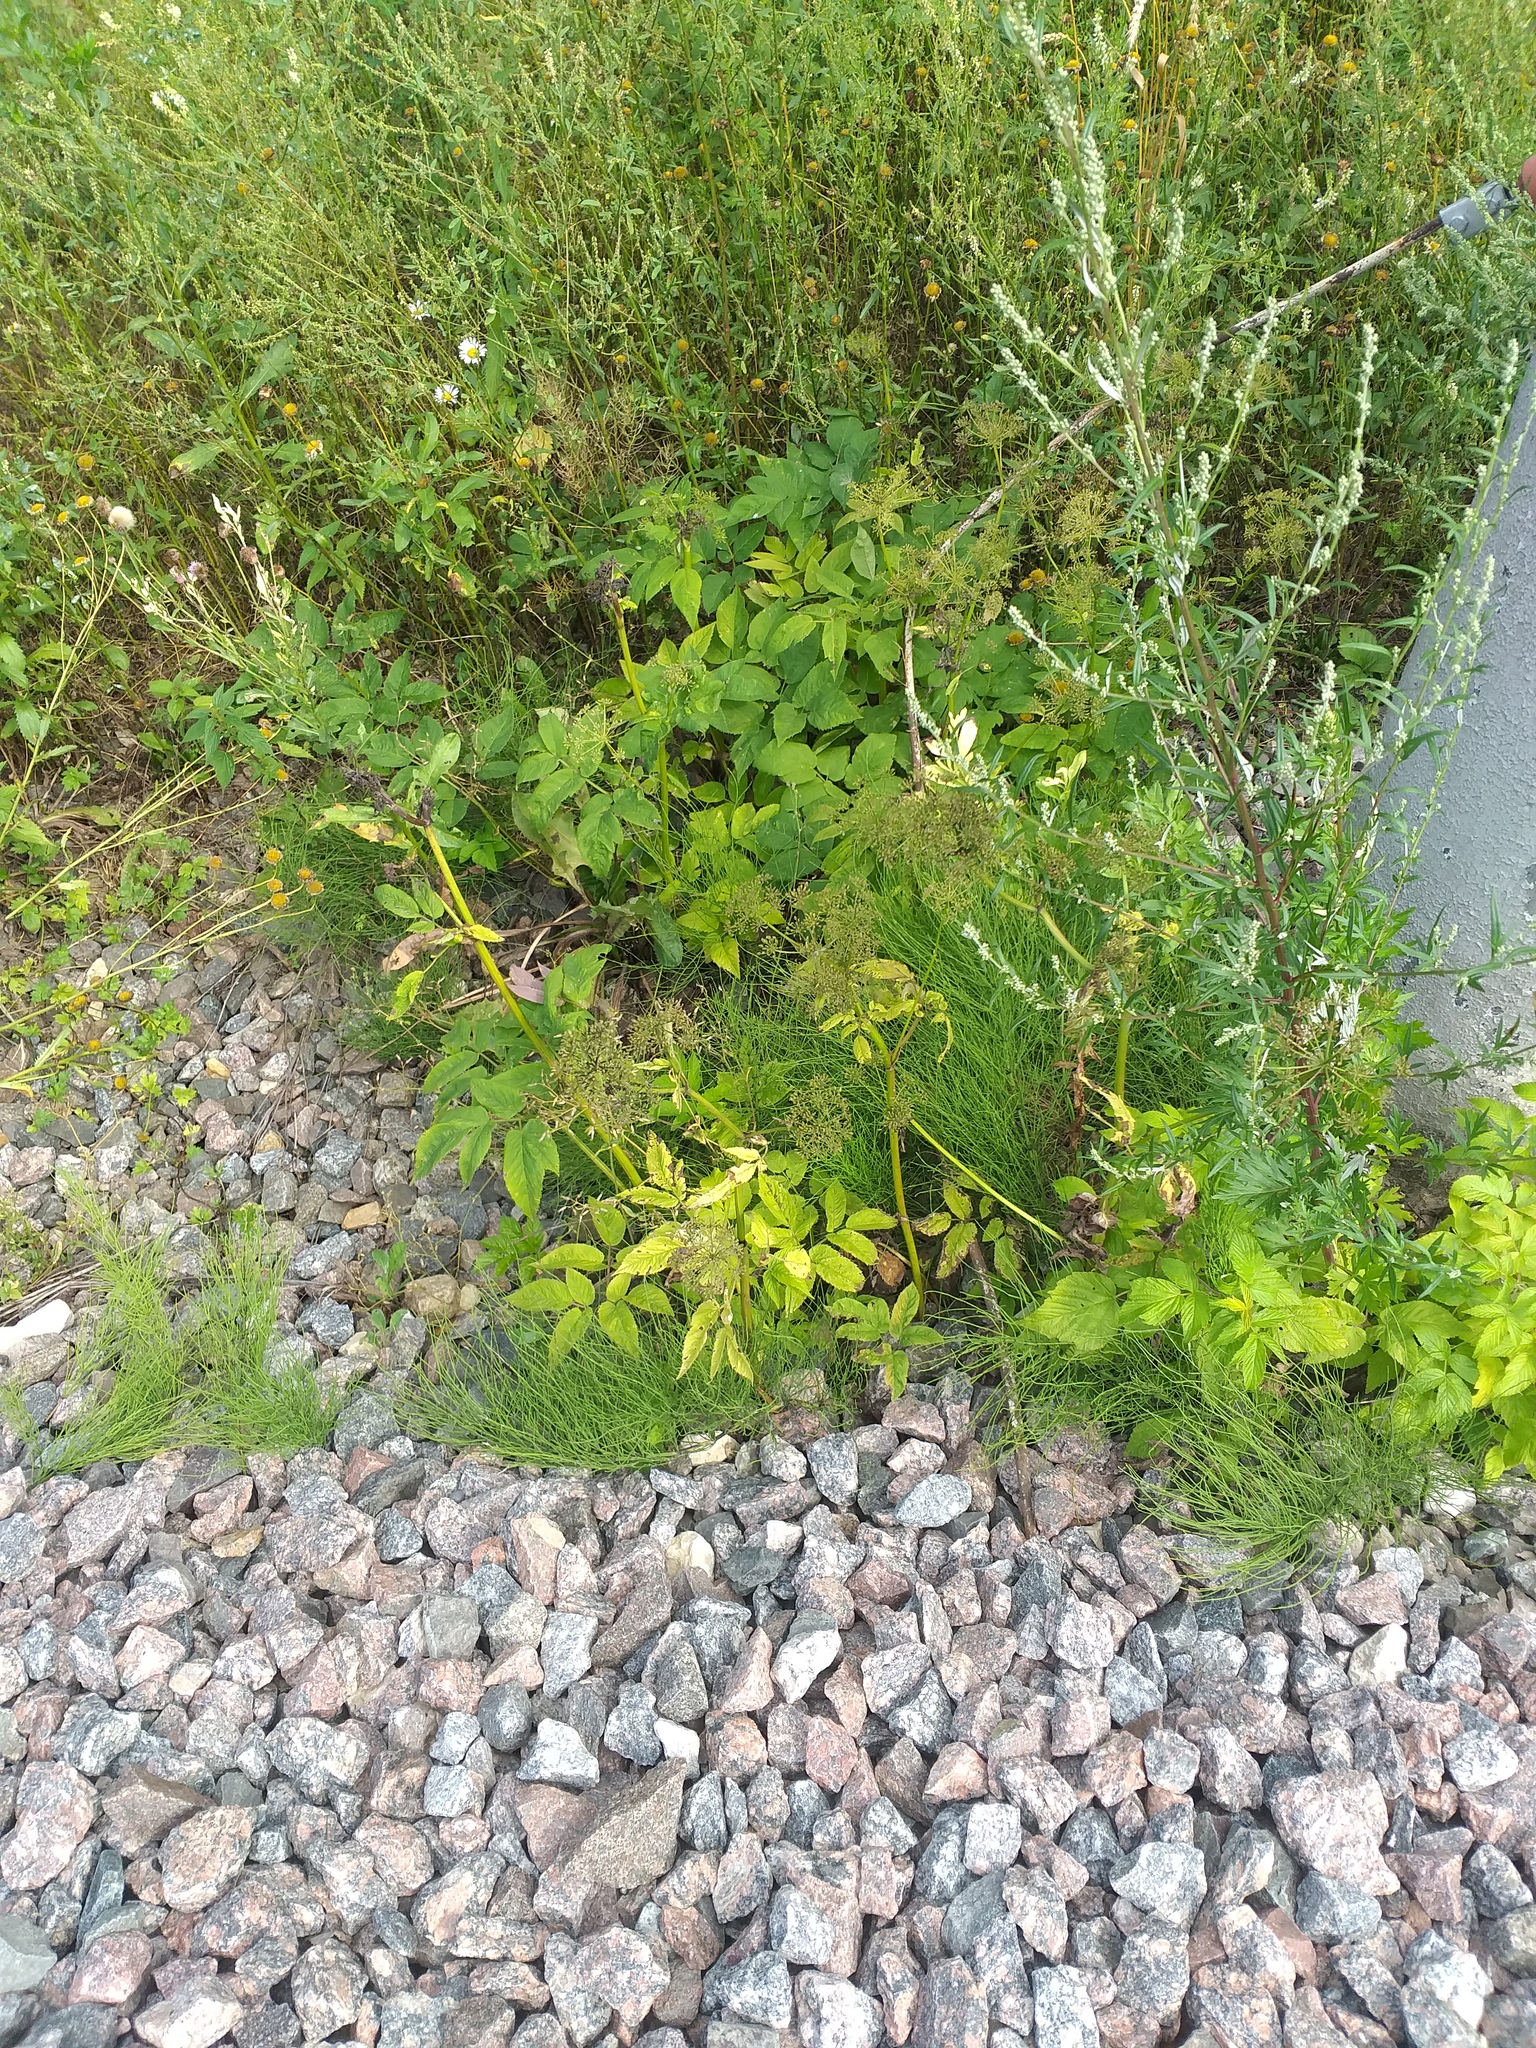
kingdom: Plantae
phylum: Tracheophyta
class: Magnoliopsida
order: Apiales
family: Apiaceae
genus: Aegopodium
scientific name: Aegopodium podagraria
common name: Ground-elder
